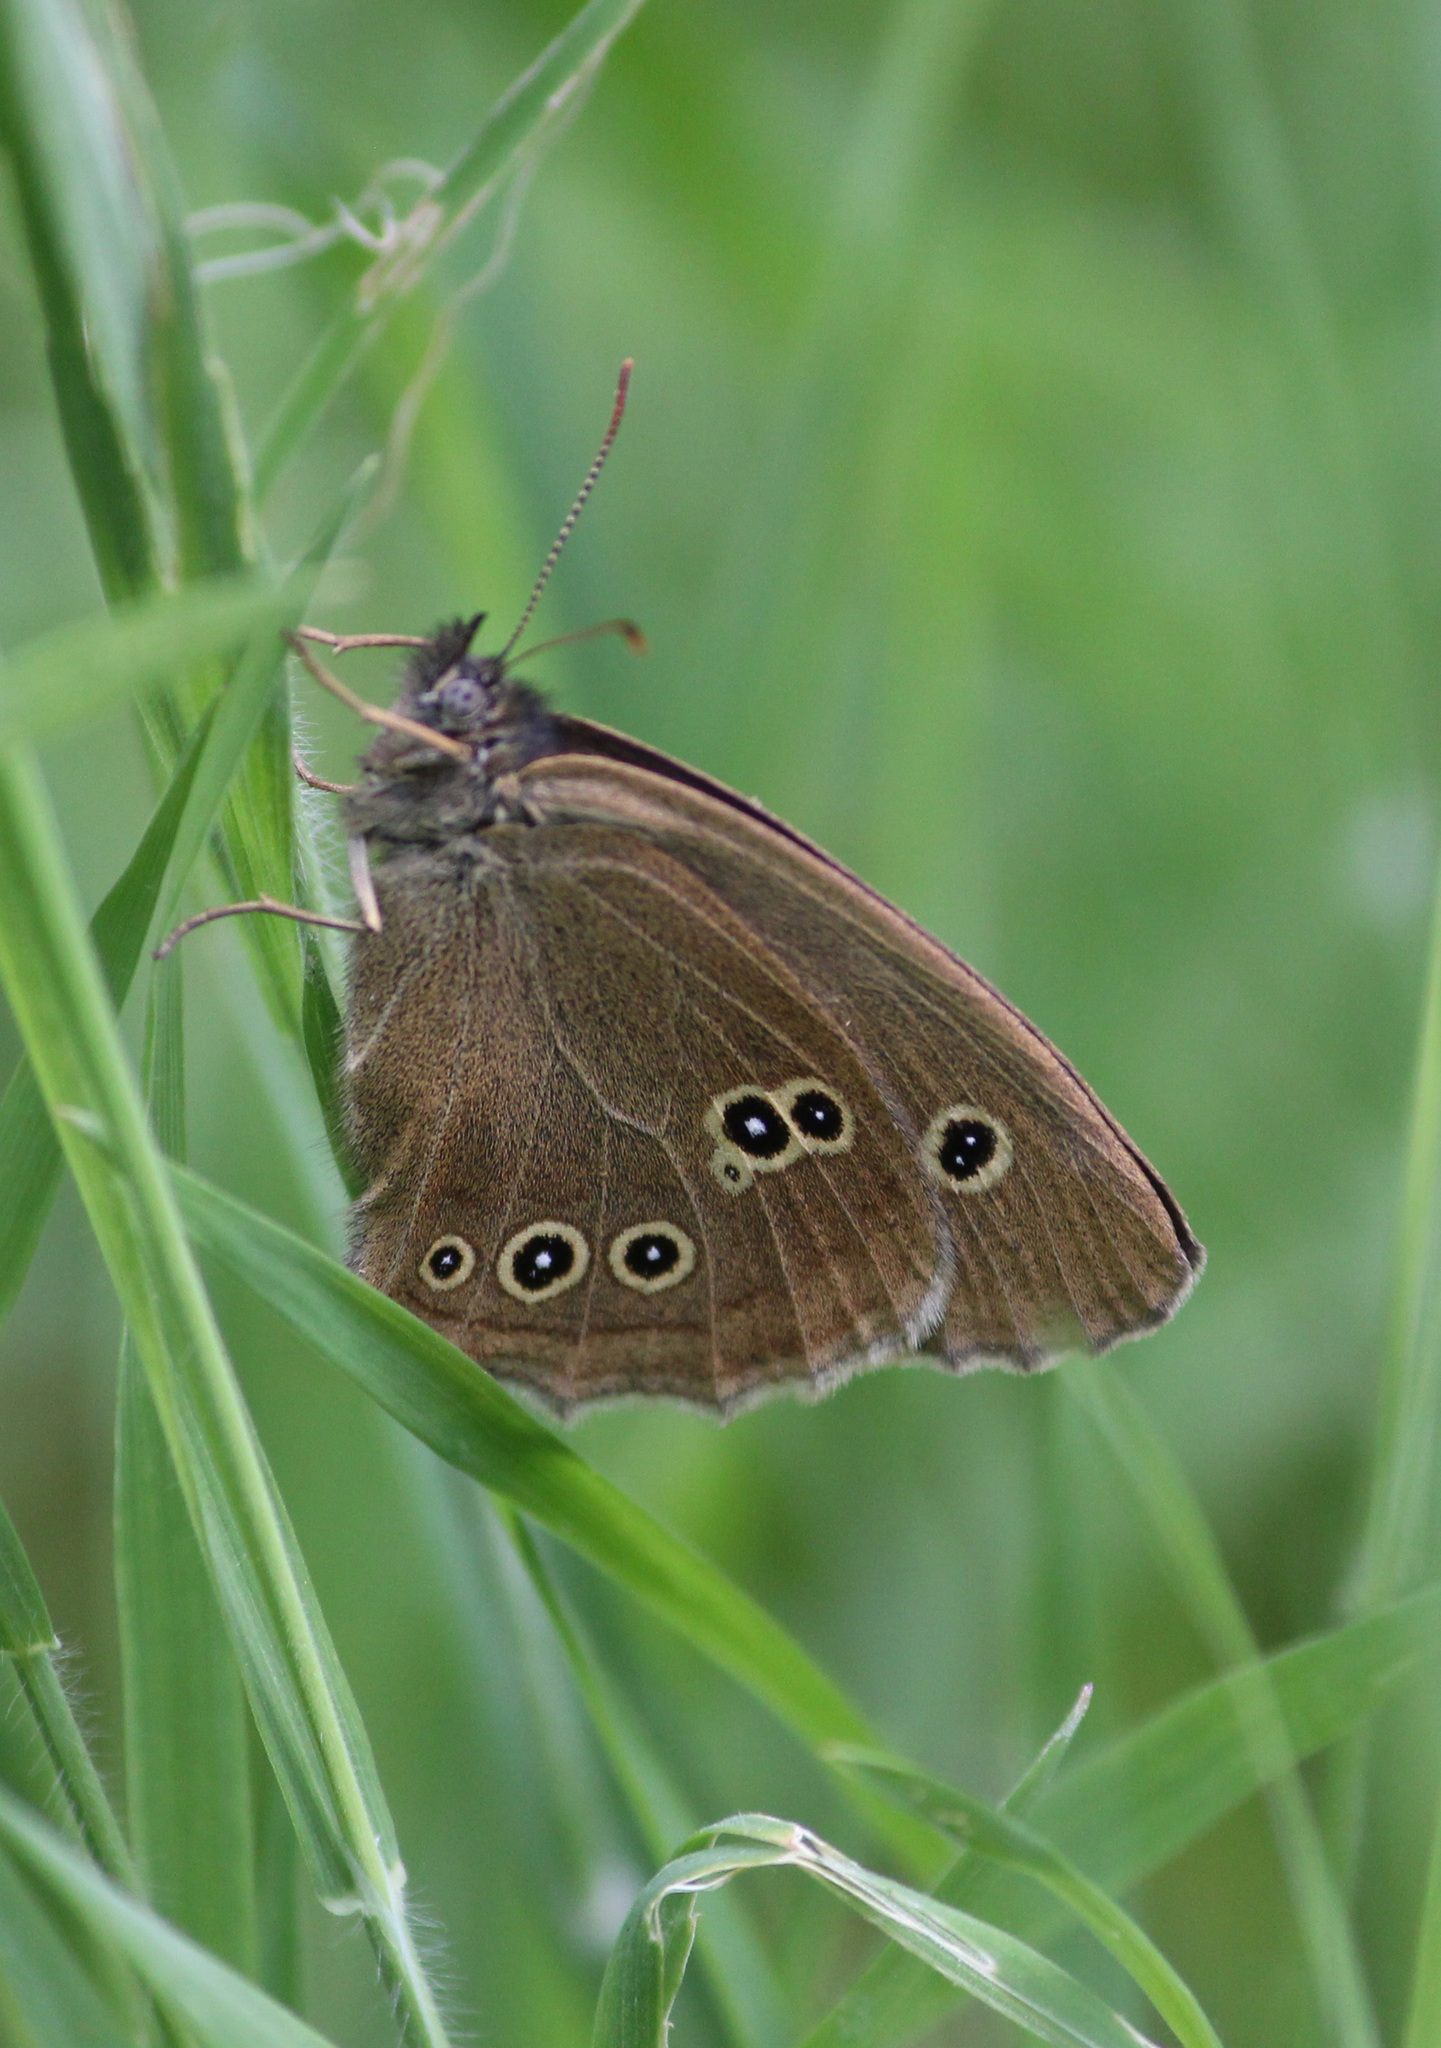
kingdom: Animalia
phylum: Arthropoda
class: Insecta
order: Lepidoptera
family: Nymphalidae
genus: Aphantopus
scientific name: Aphantopus hyperantus
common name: Ringlet
